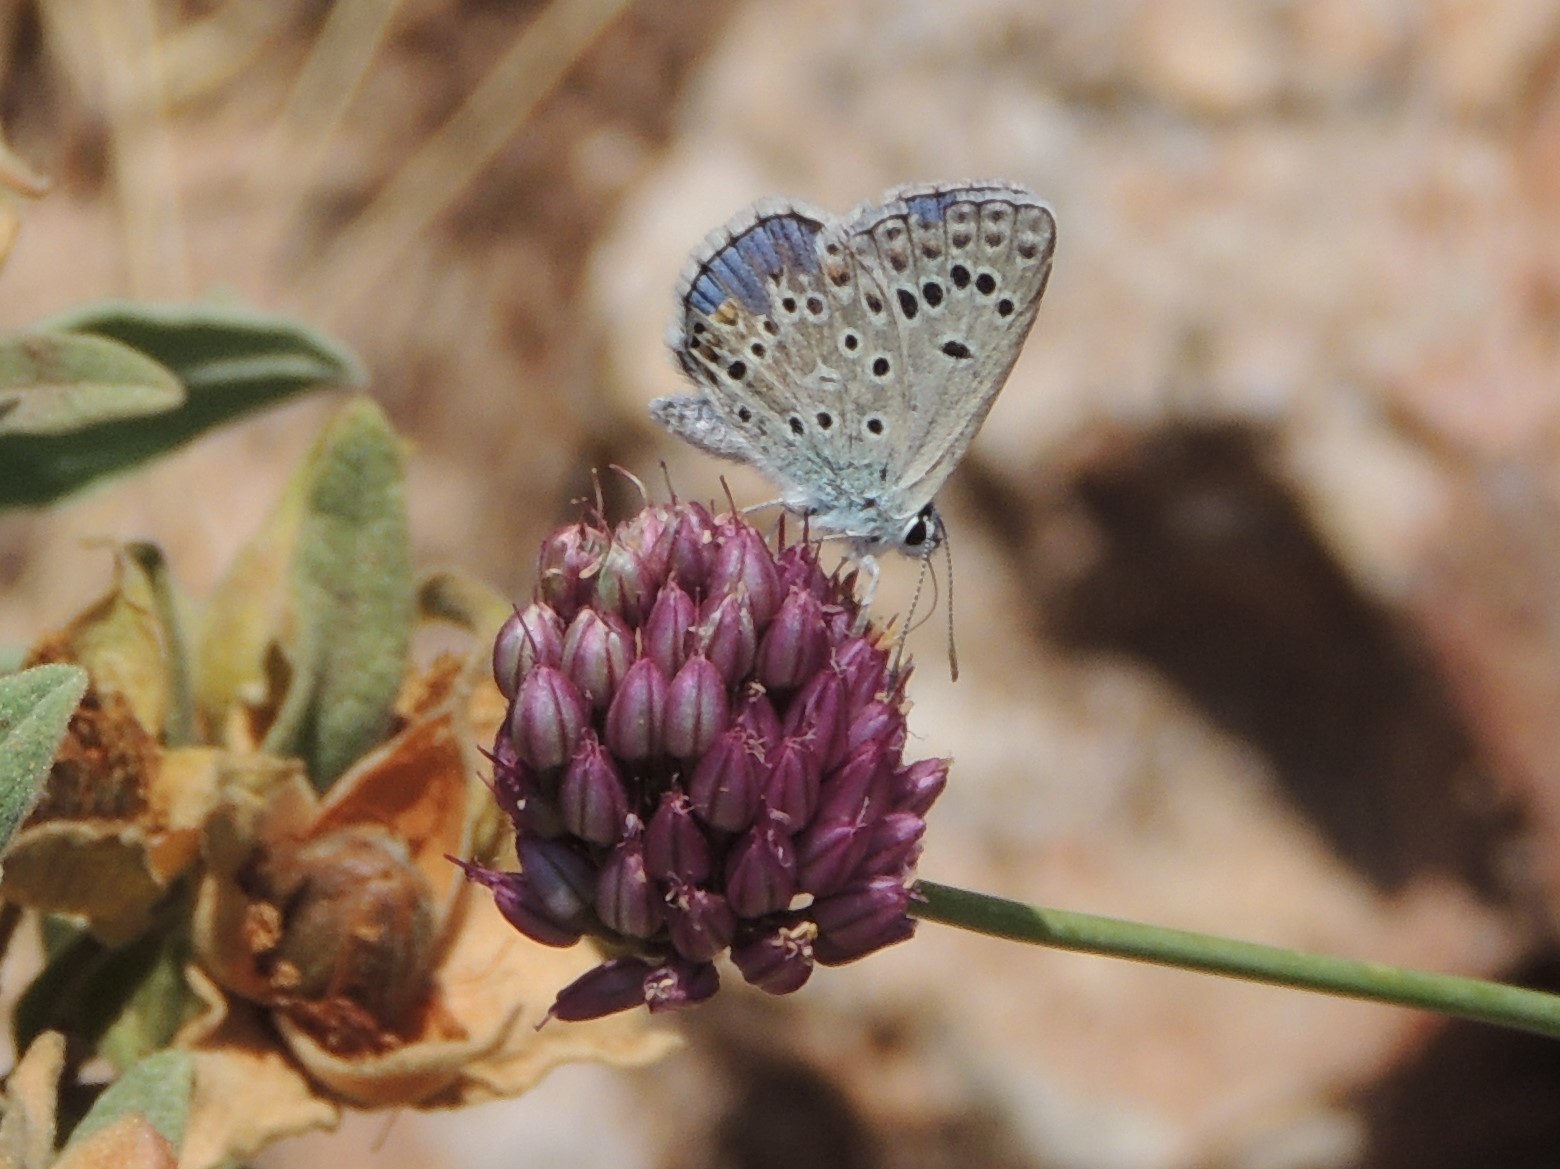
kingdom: Animalia
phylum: Arthropoda
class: Insecta
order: Lepidoptera
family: Lycaenidae
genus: Plebicula
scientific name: Plebicula escheri
